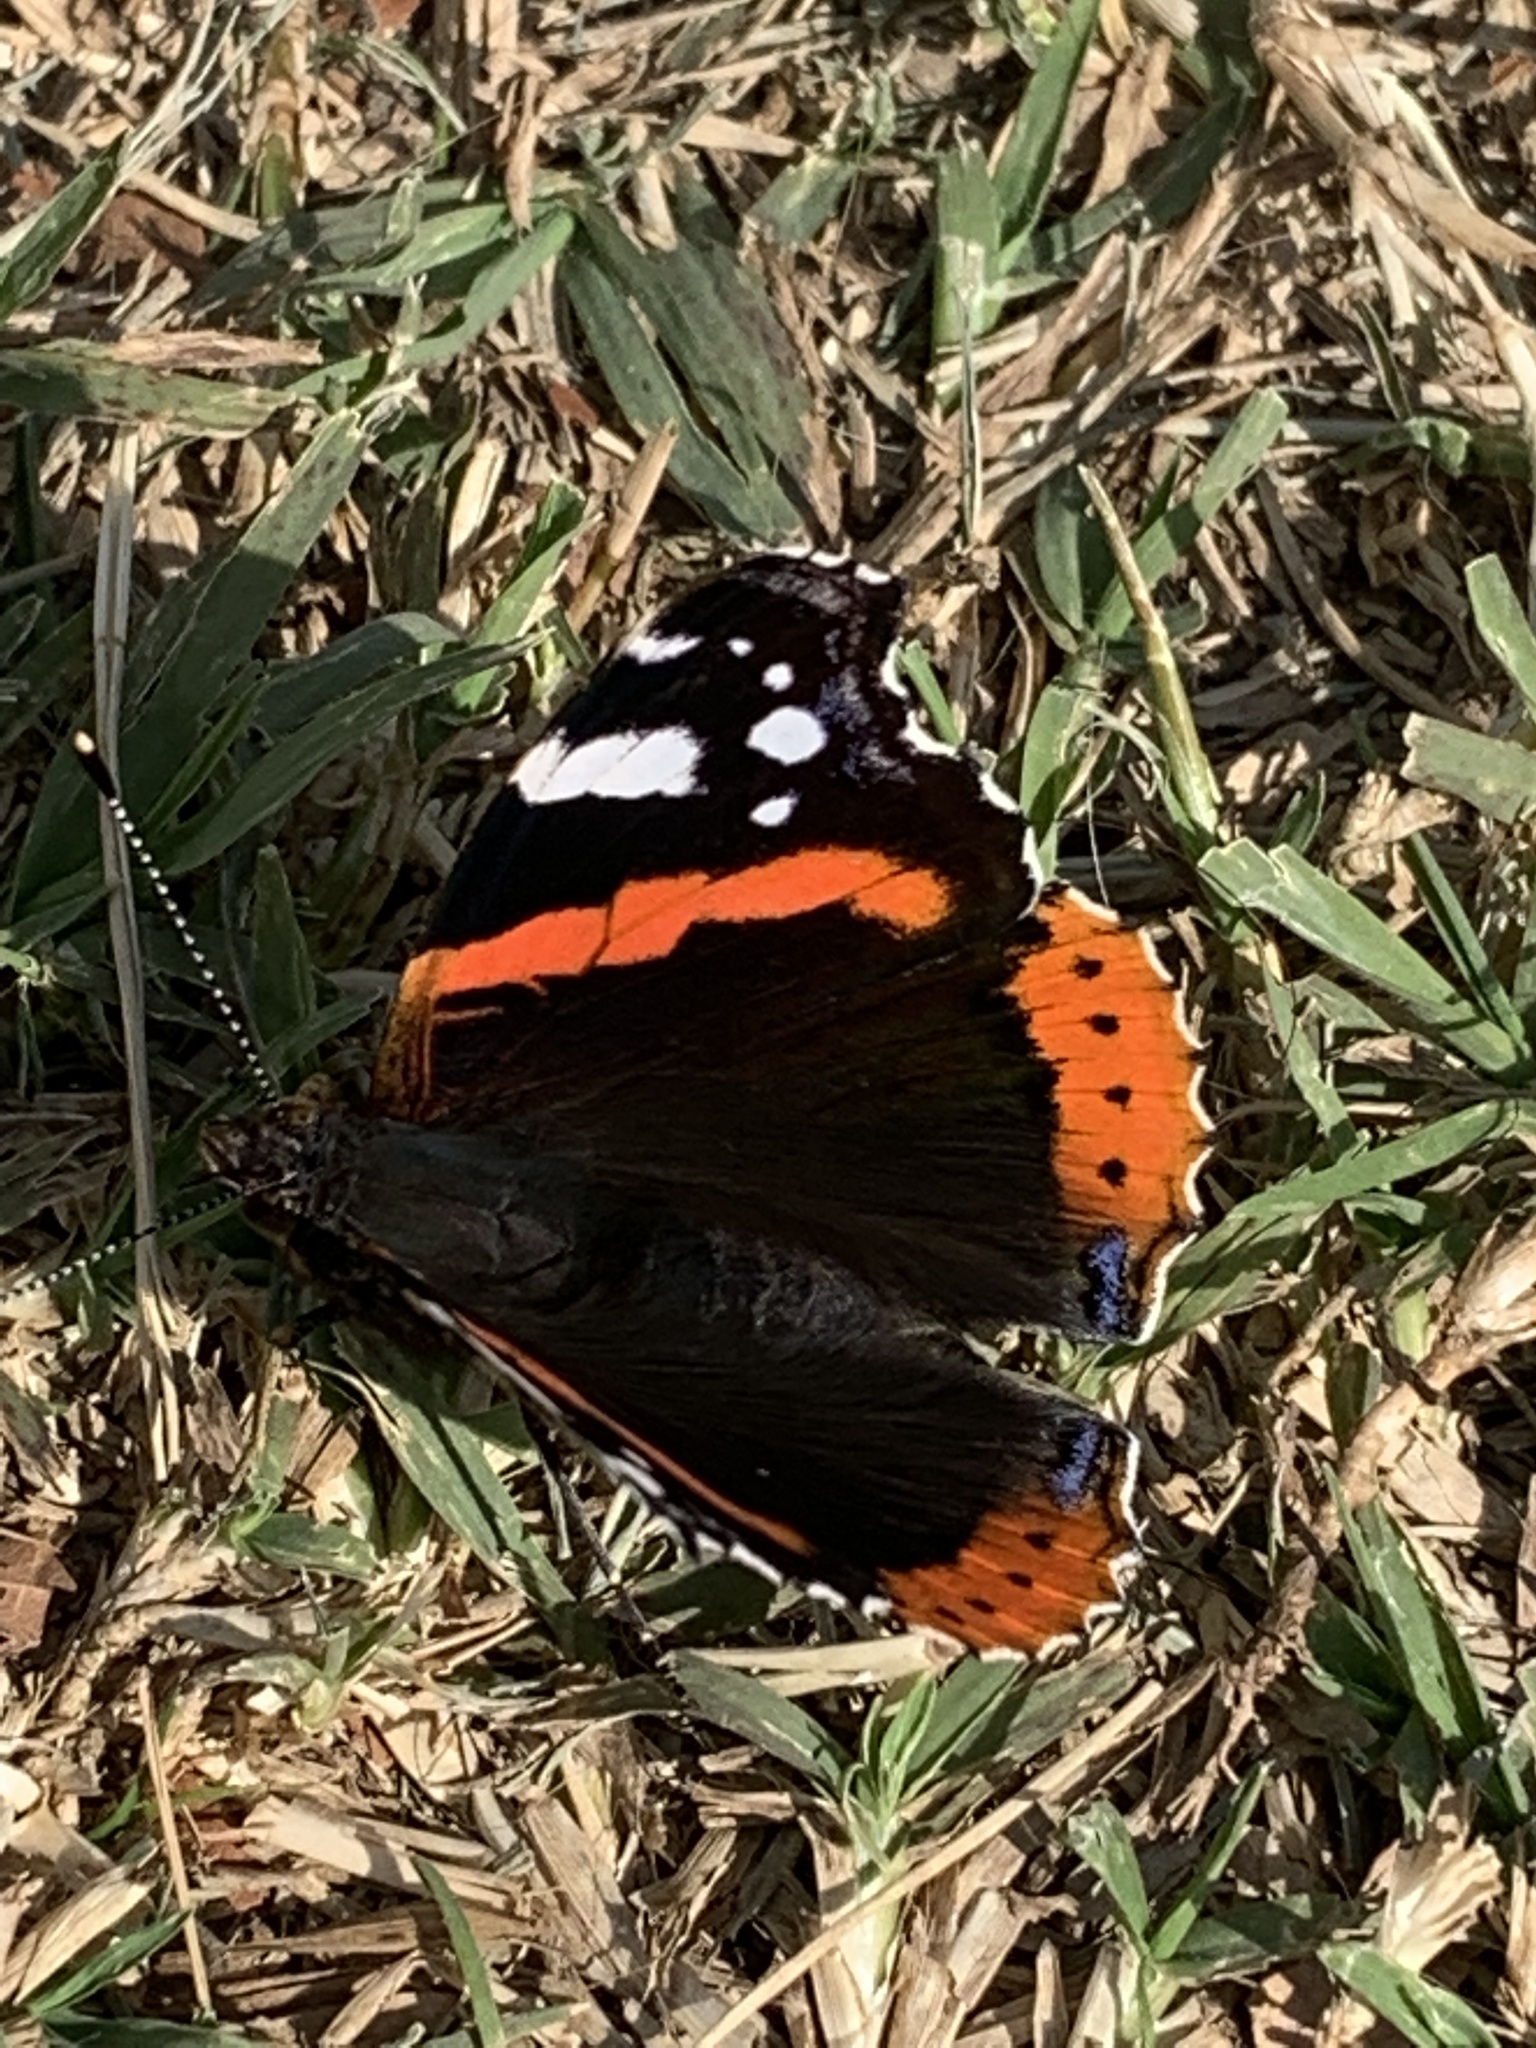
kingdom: Animalia
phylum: Arthropoda
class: Insecta
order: Lepidoptera
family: Nymphalidae
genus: Vanessa
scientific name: Vanessa atalanta
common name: Red admiral
